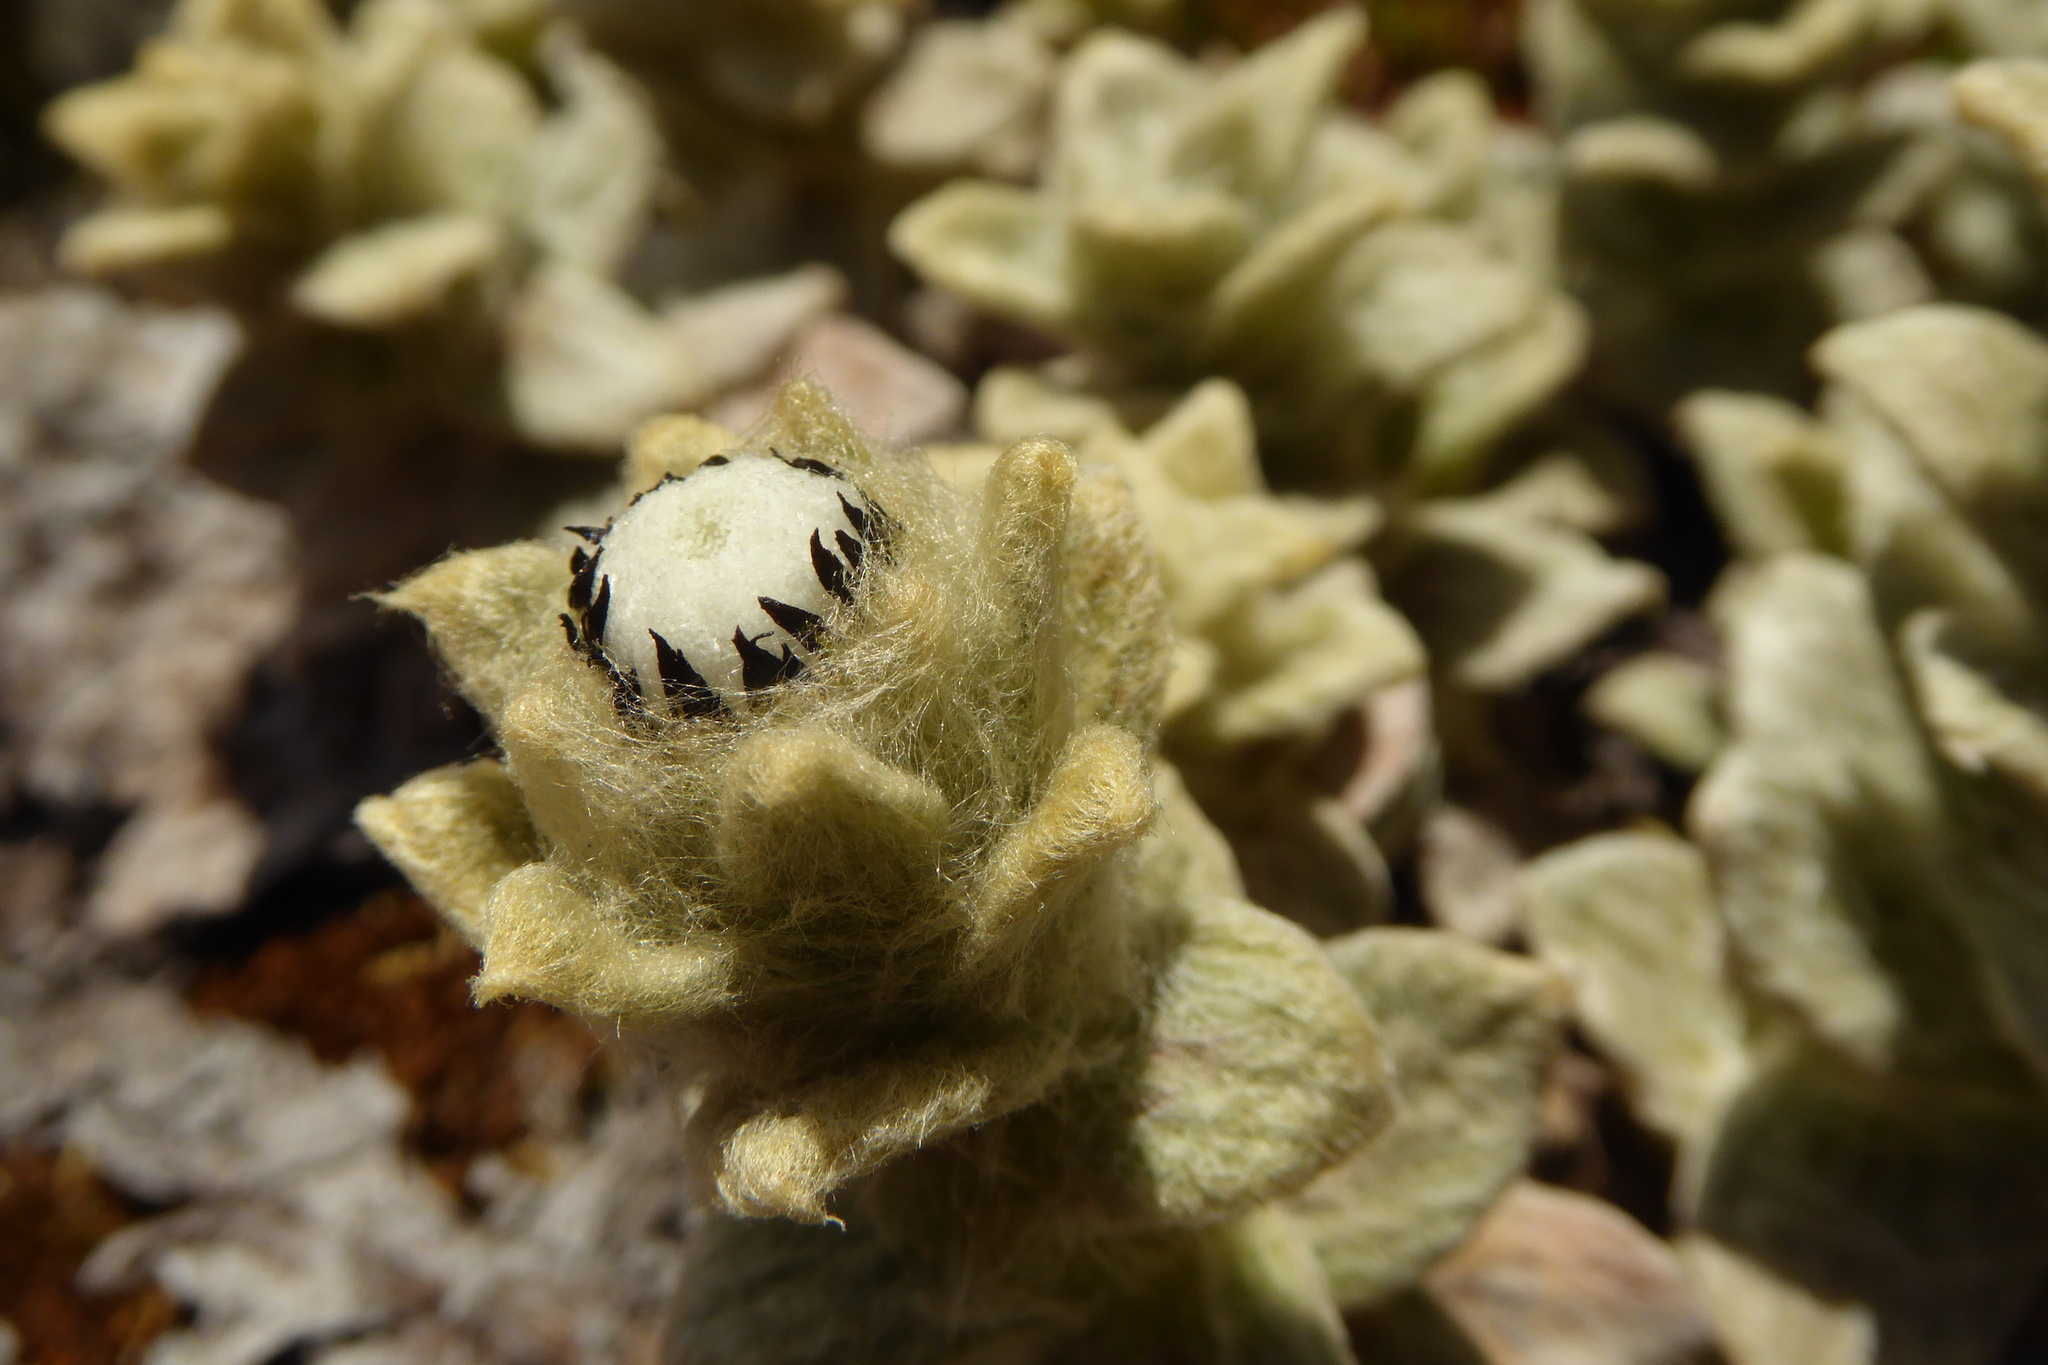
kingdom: Plantae
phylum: Tracheophyta
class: Magnoliopsida
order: Asterales
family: Asteraceae
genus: Haastia
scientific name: Haastia sinclairii
